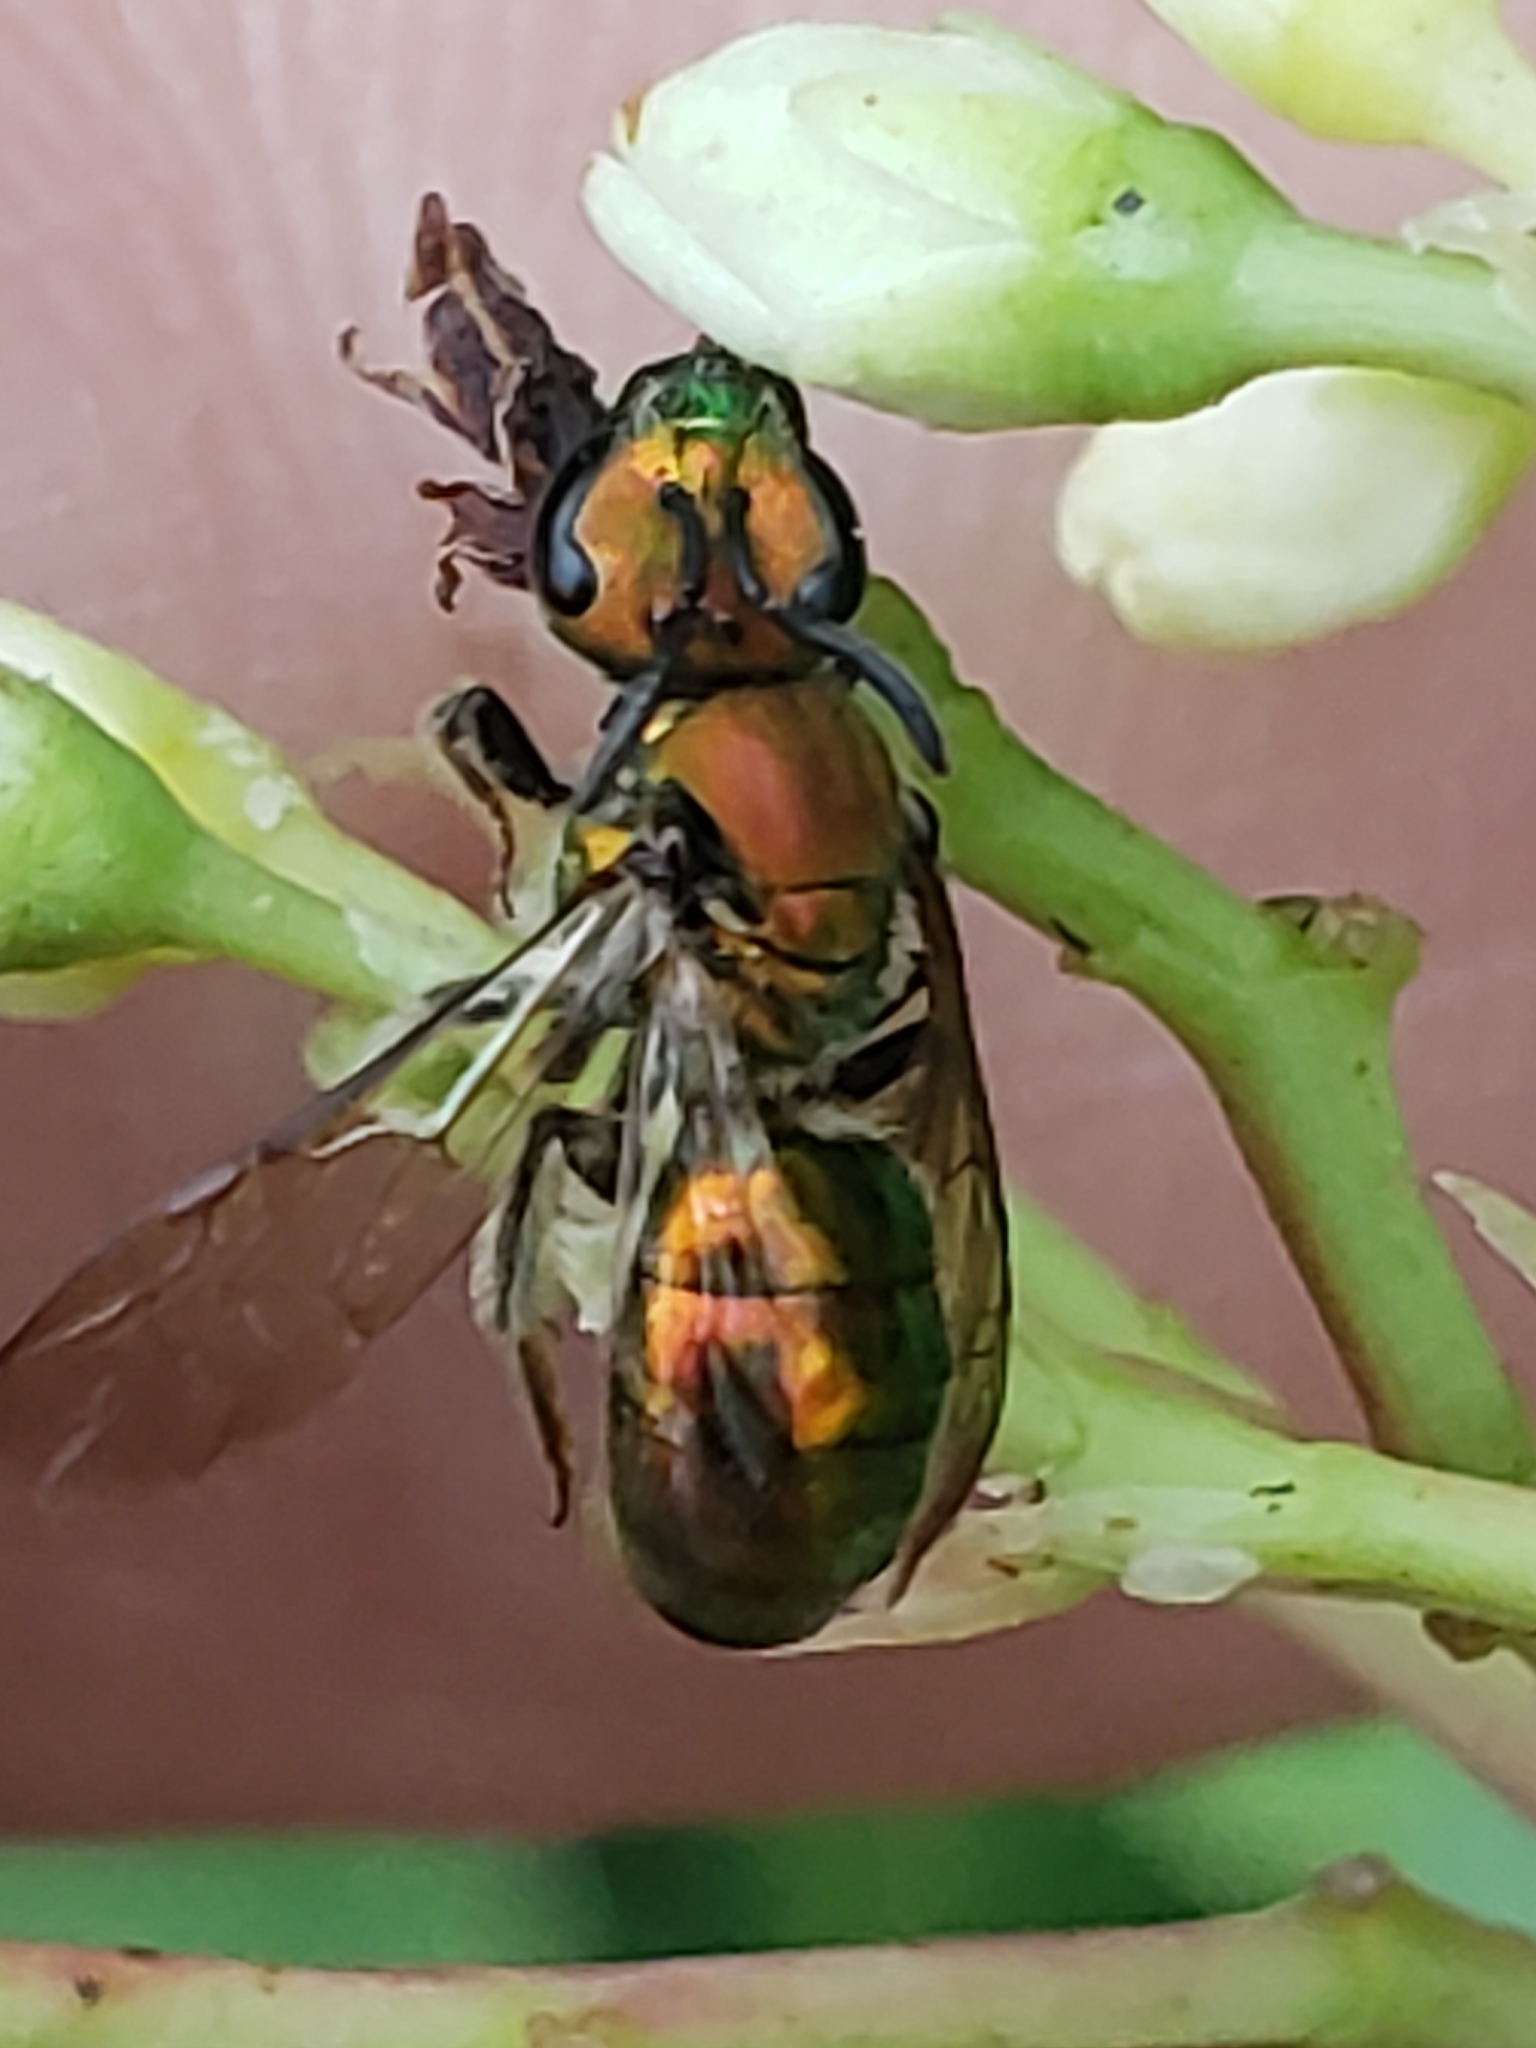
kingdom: Animalia
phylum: Arthropoda
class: Insecta
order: Hymenoptera
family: Halictidae
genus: Augochlora
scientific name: Augochlora pura
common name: Pure green sweat bee
